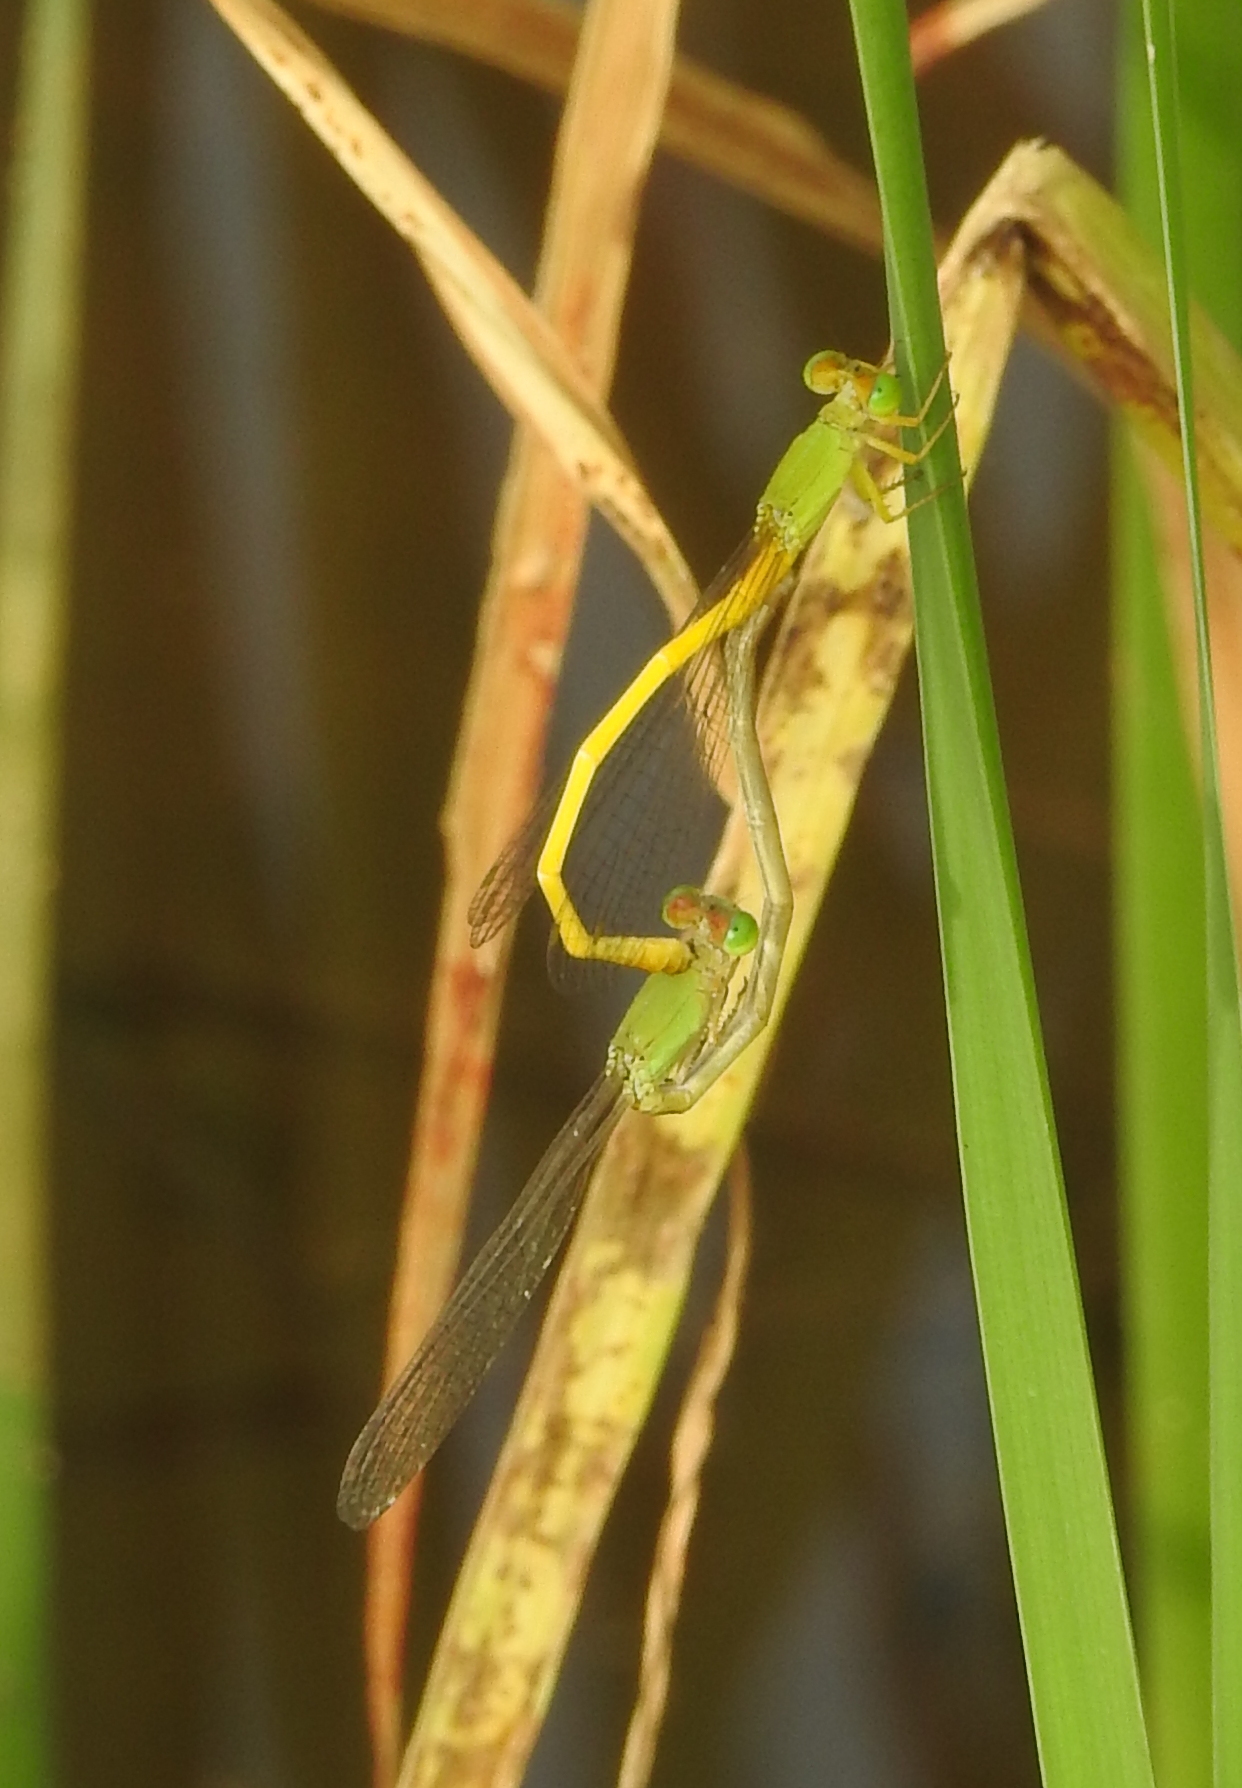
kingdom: Animalia
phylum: Arthropoda
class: Insecta
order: Odonata
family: Coenagrionidae
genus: Ceriagrion
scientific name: Ceriagrion coromandelianum
